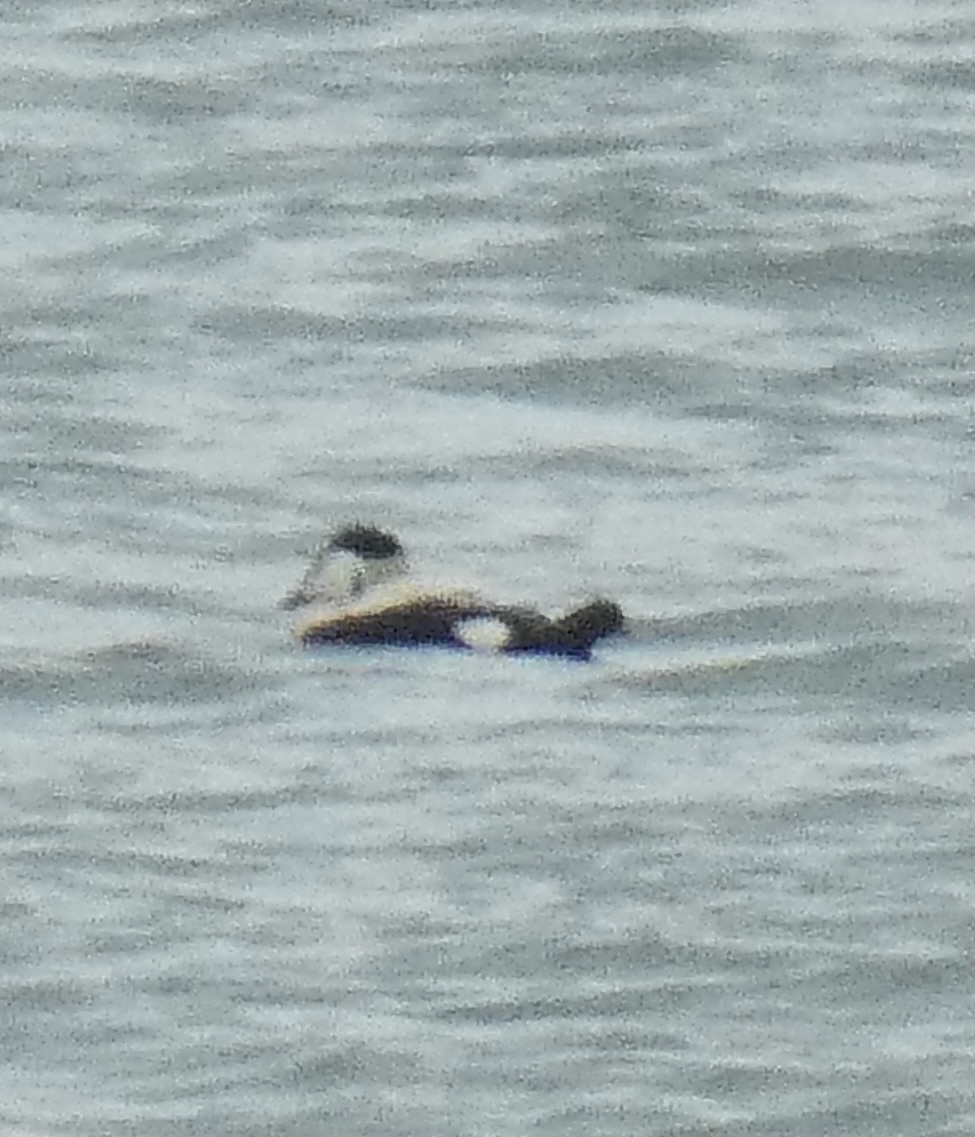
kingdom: Animalia
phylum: Chordata
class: Aves
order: Anseriformes
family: Anatidae
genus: Somateria
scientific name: Somateria mollissima
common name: Common eider
